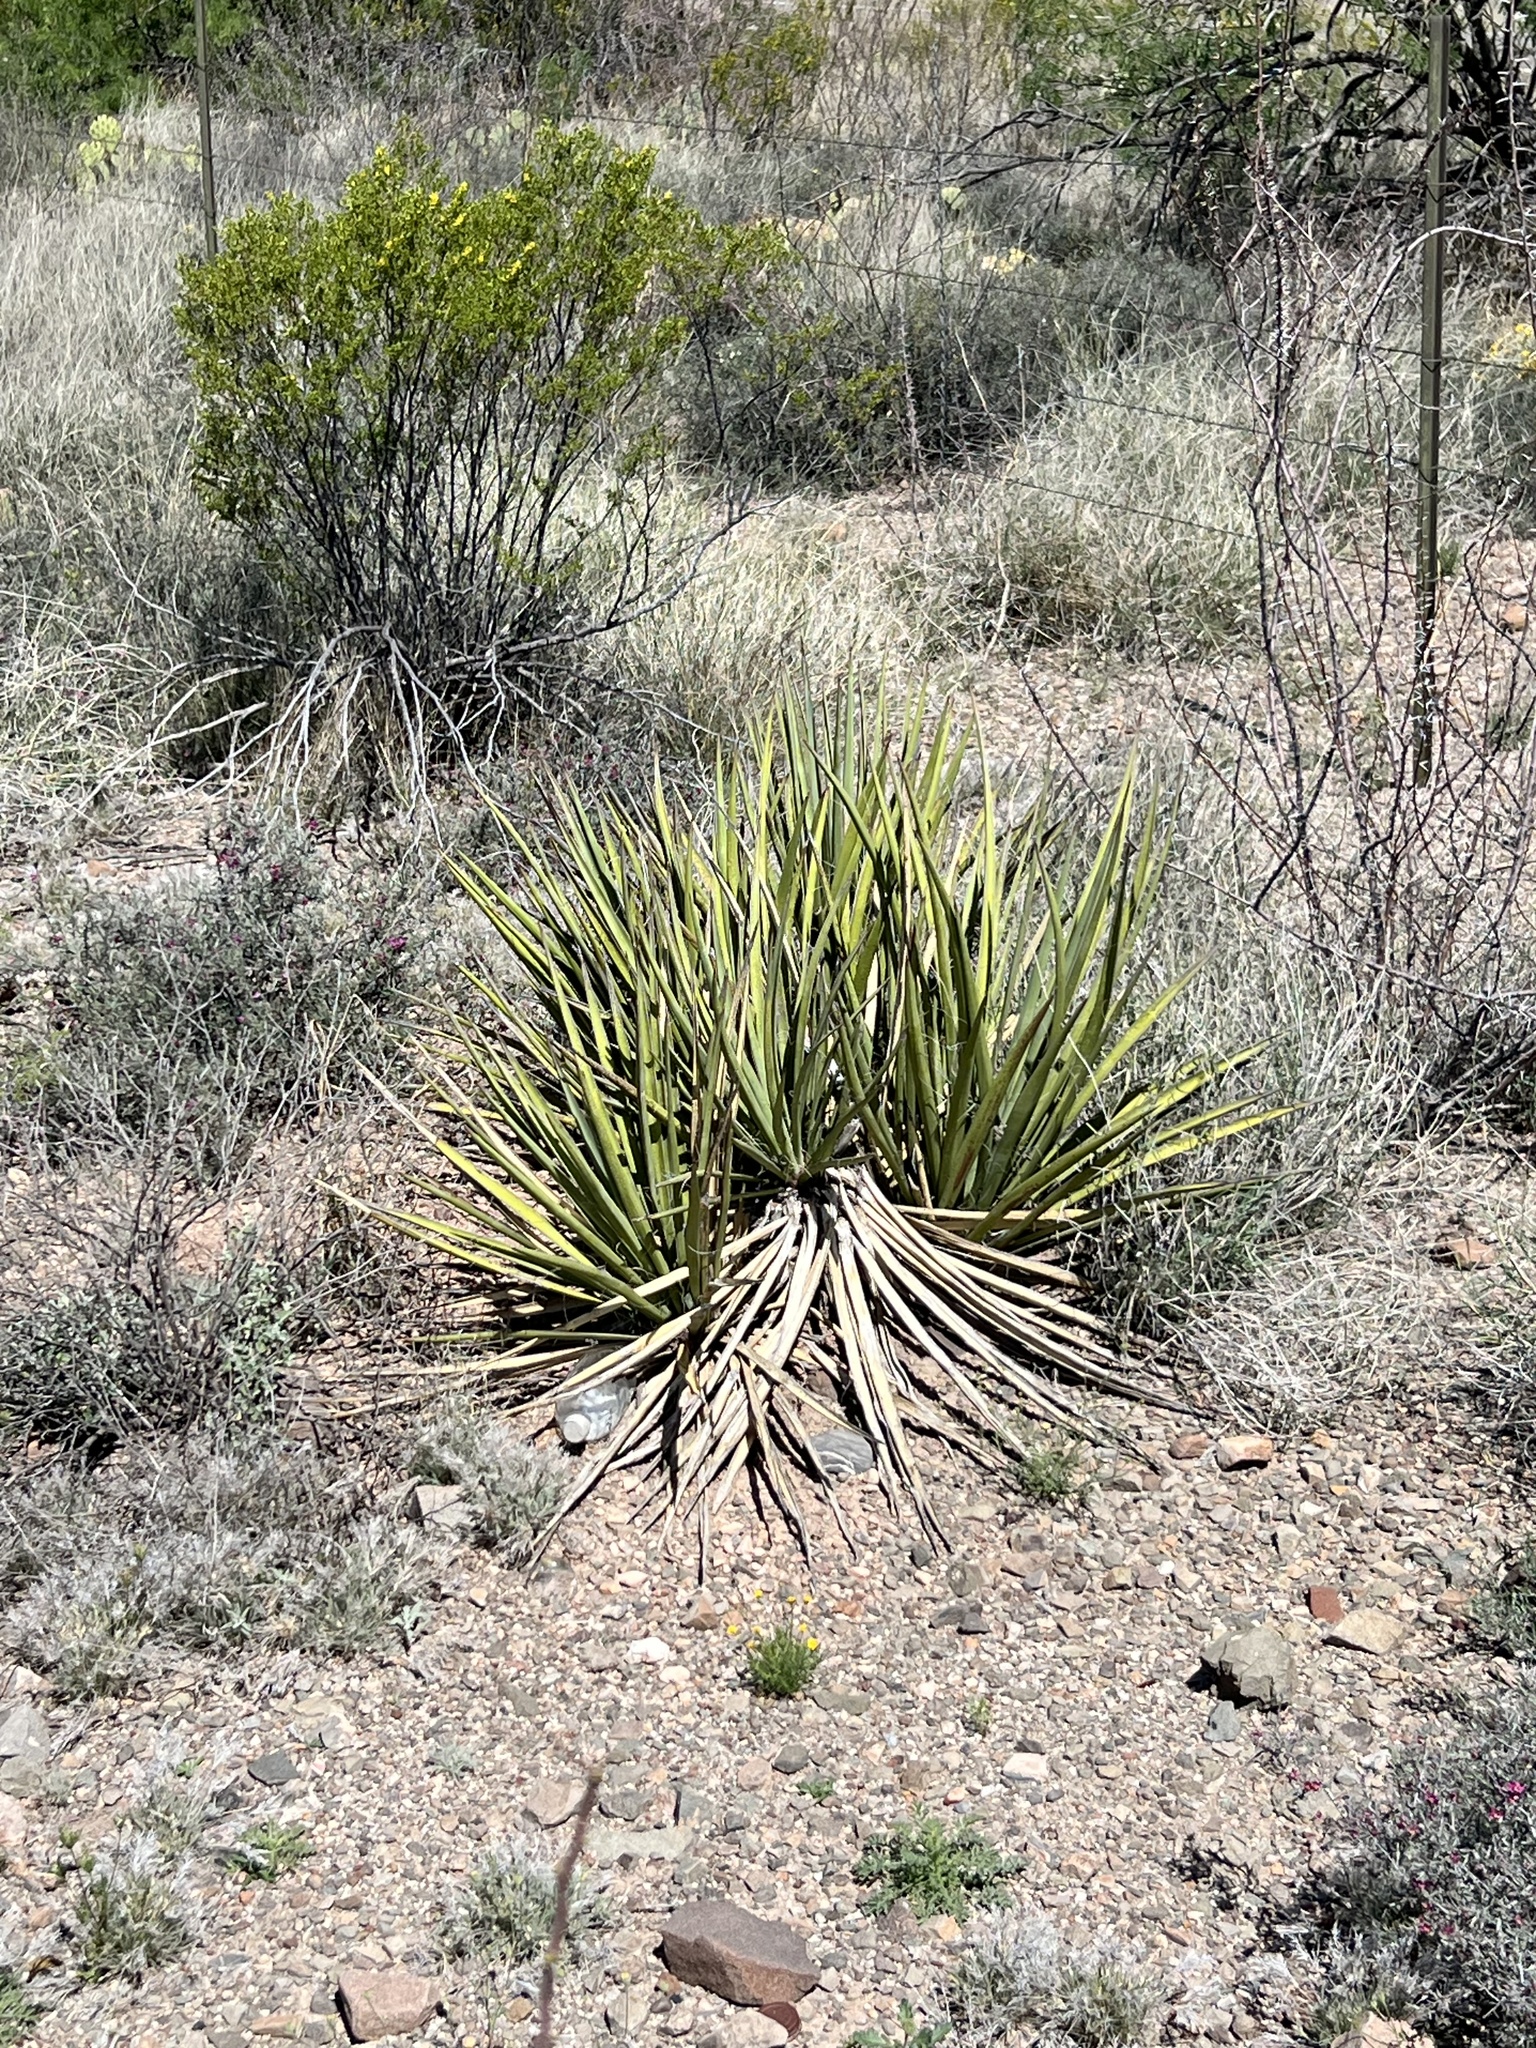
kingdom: Plantae
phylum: Tracheophyta
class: Liliopsida
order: Asparagales
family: Asparagaceae
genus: Yucca
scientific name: Yucca baccata
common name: Banana yucca
